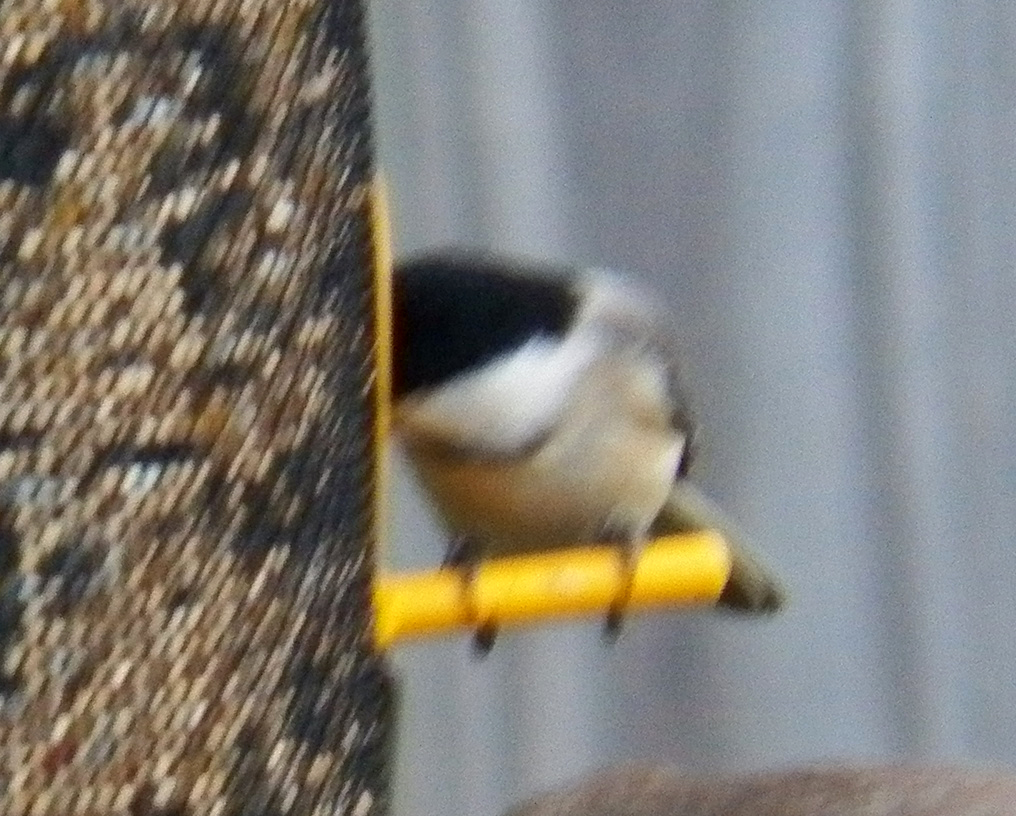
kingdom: Animalia
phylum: Chordata
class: Aves
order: Passeriformes
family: Paridae
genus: Poecile
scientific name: Poecile carolinensis
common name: Carolina chickadee
